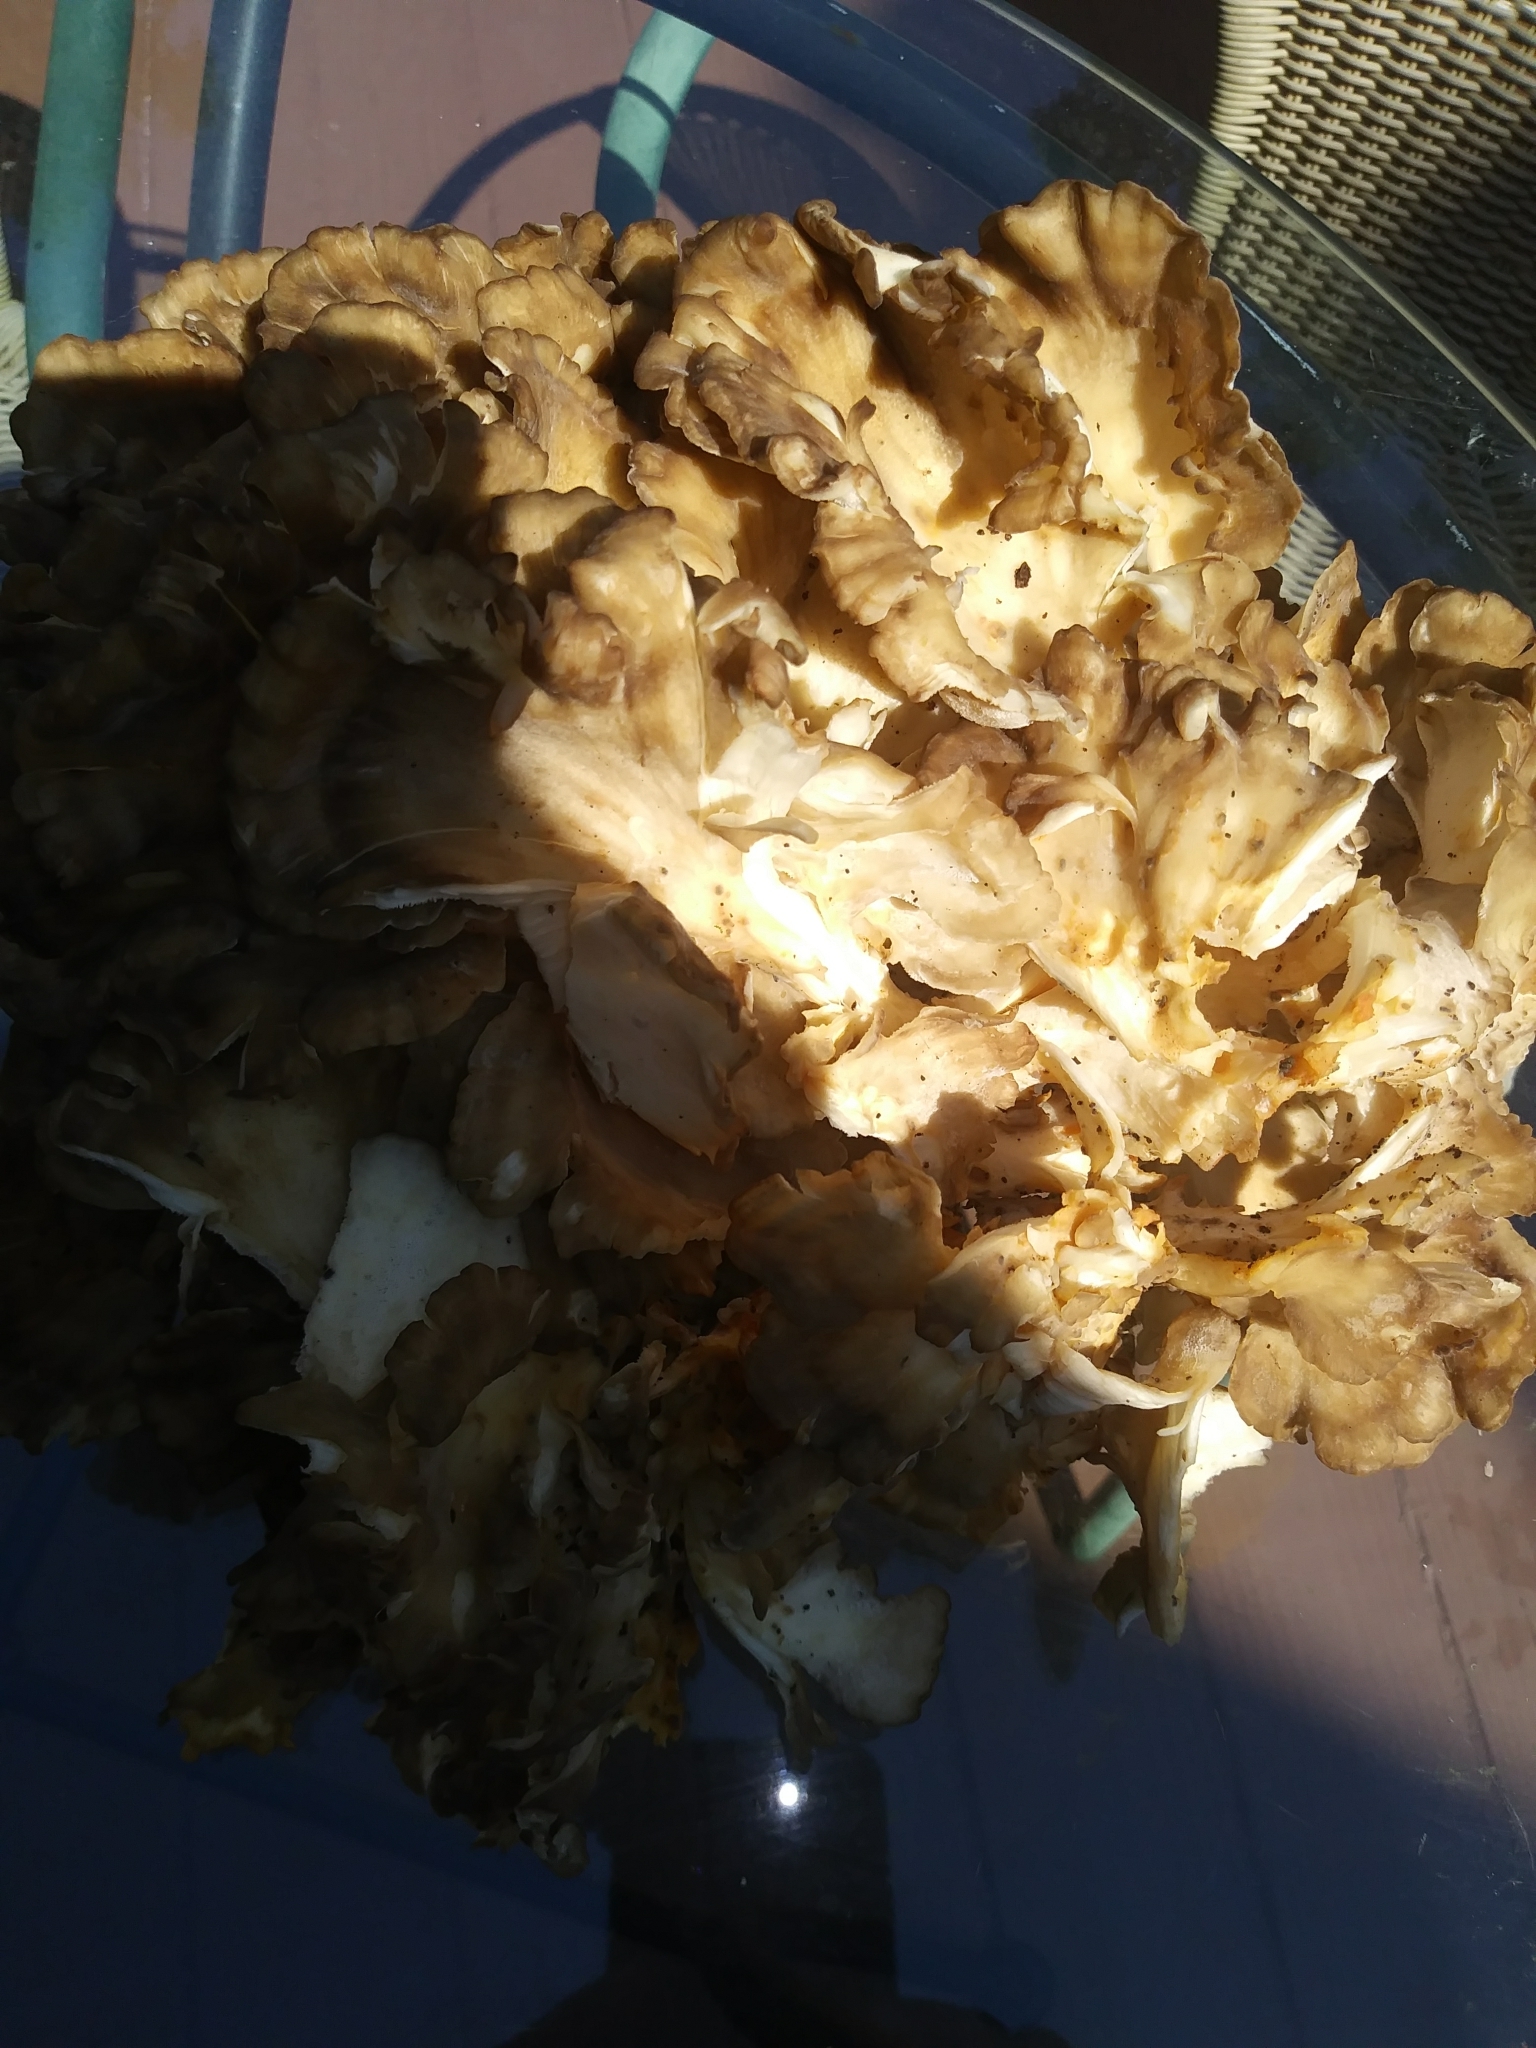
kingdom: Fungi
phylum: Basidiomycota
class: Agaricomycetes
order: Polyporales
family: Grifolaceae
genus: Grifola
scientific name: Grifola frondosa
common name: Hen of the woods
